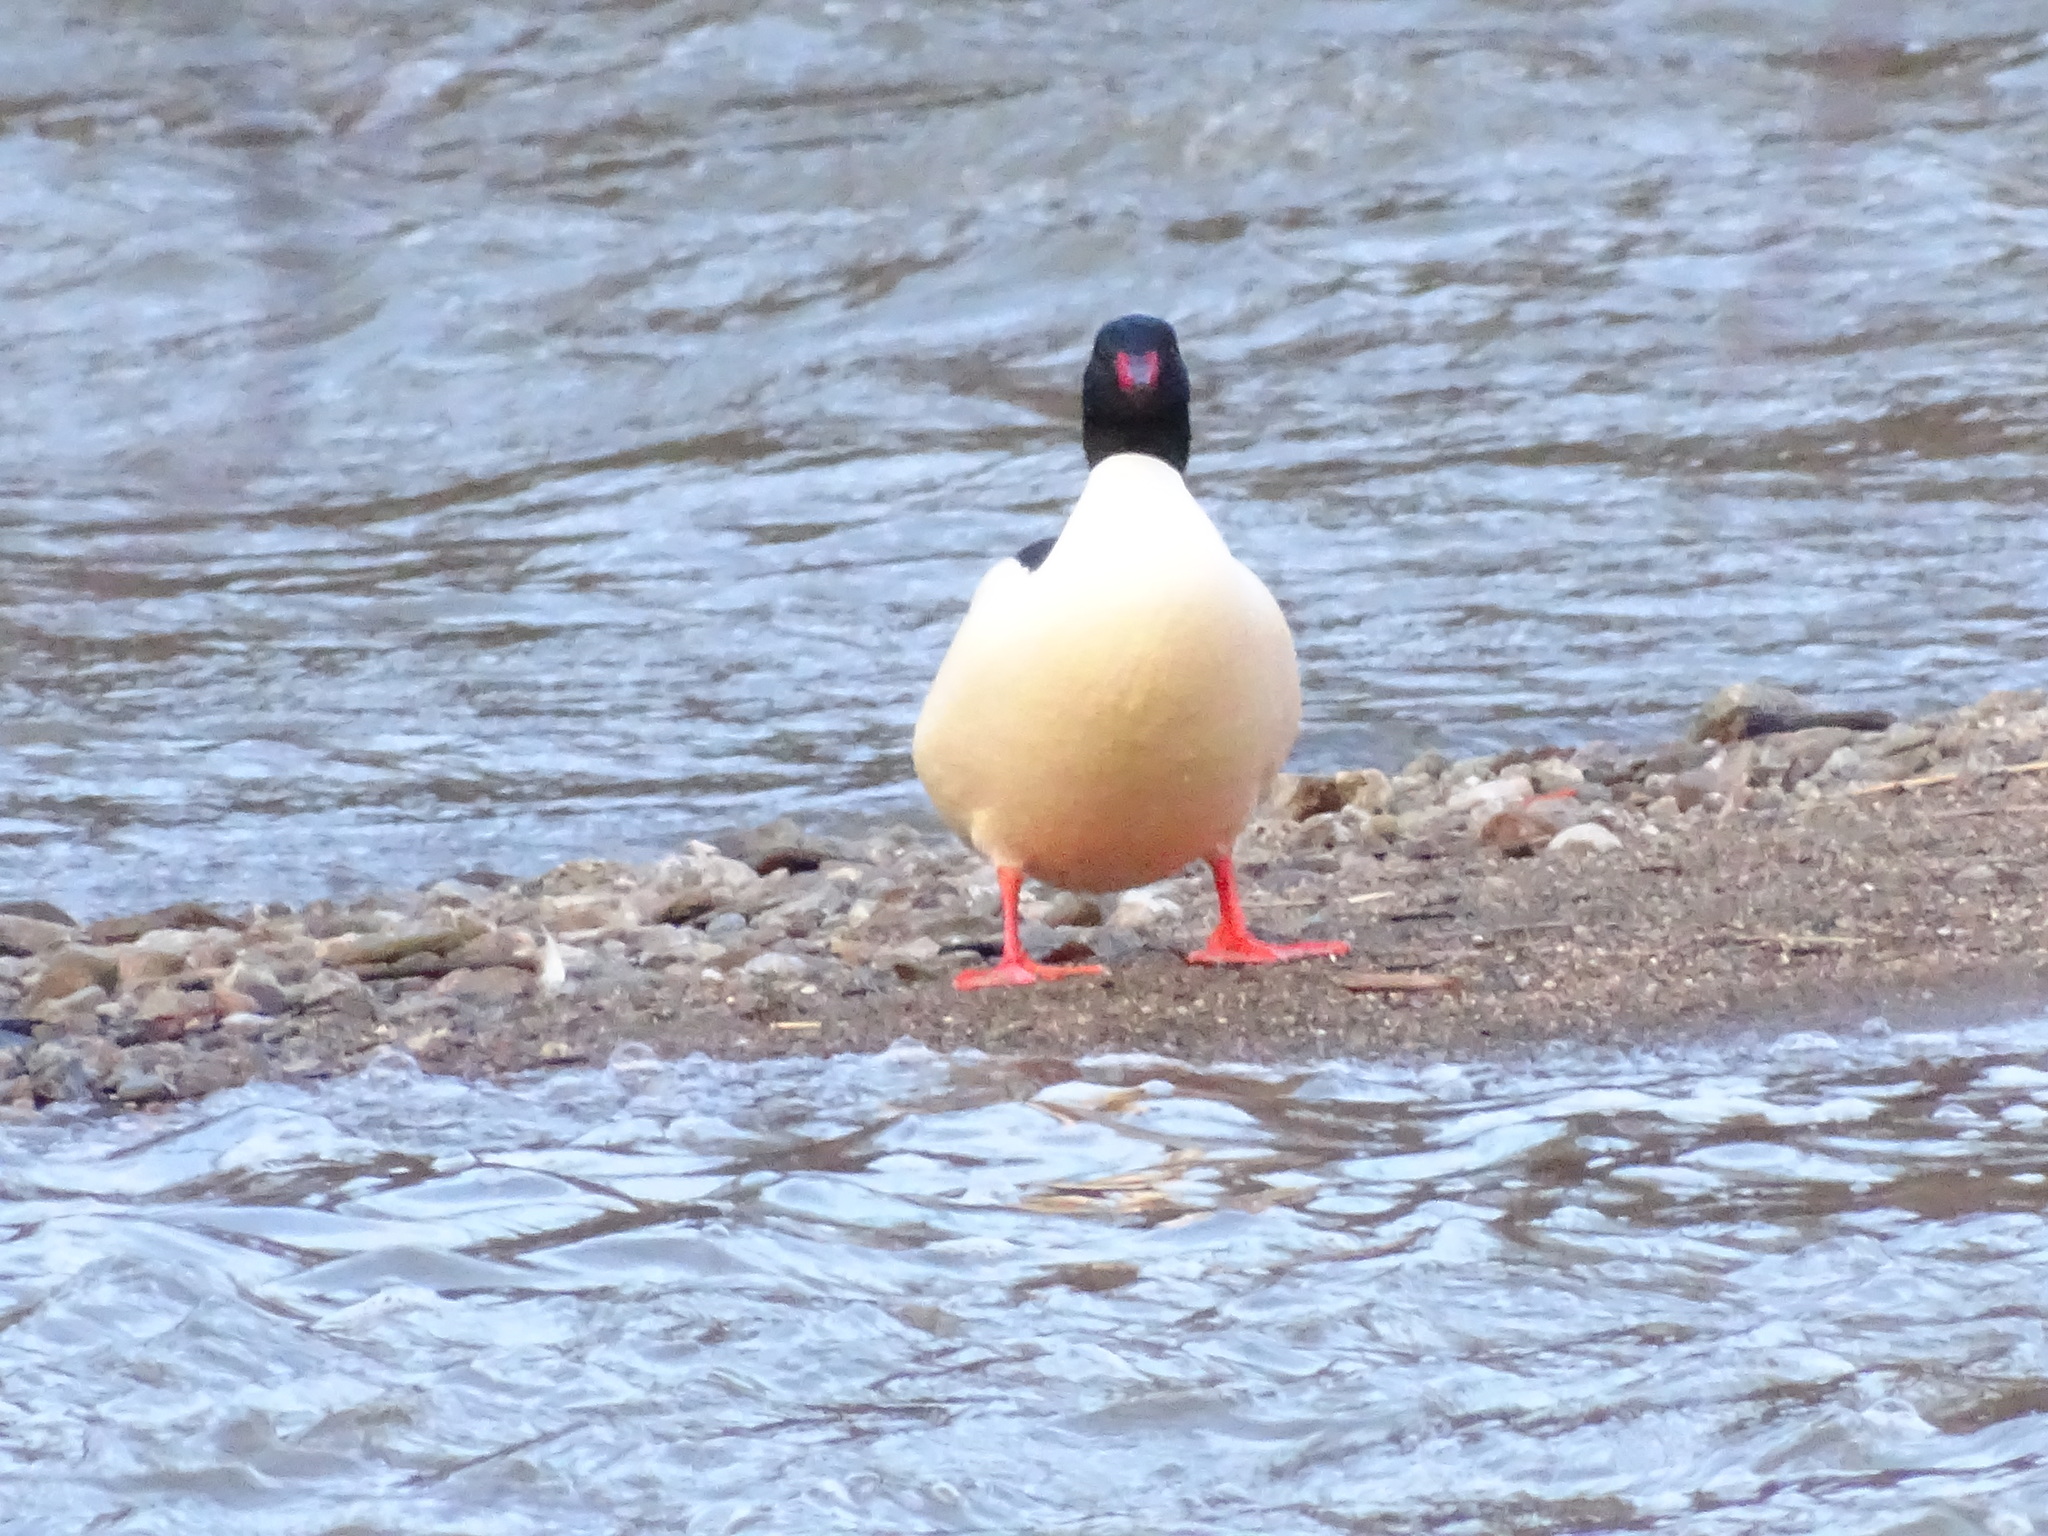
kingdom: Animalia
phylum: Chordata
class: Aves
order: Anseriformes
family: Anatidae
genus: Mergus
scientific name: Mergus merganser
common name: Common merganser
